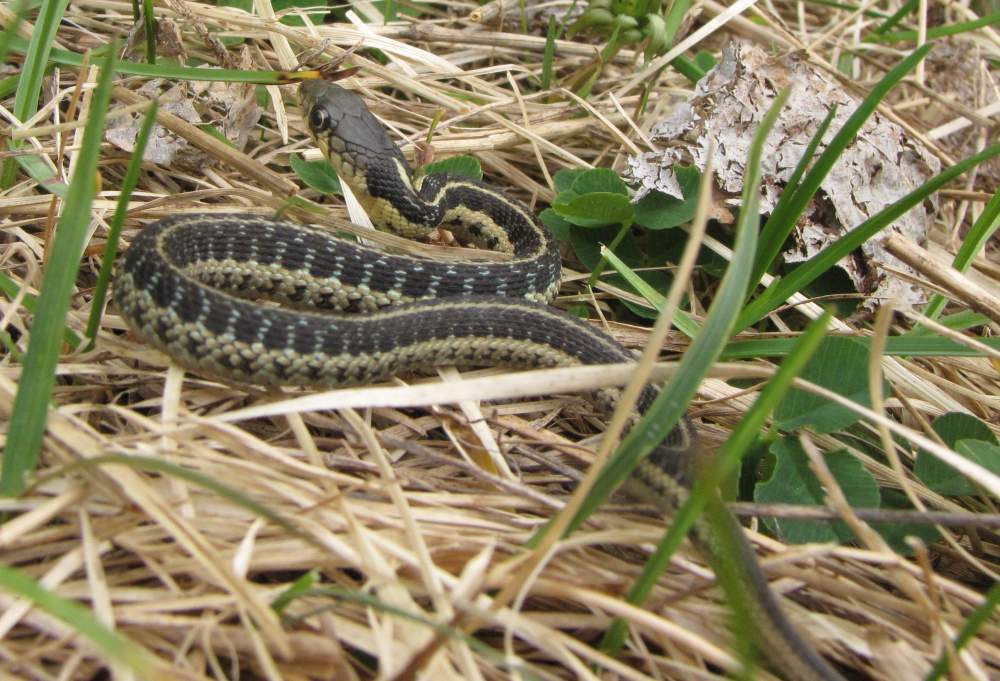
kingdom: Animalia
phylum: Chordata
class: Squamata
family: Colubridae
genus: Thamnophis
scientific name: Thamnophis sirtalis
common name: Common garter snake
